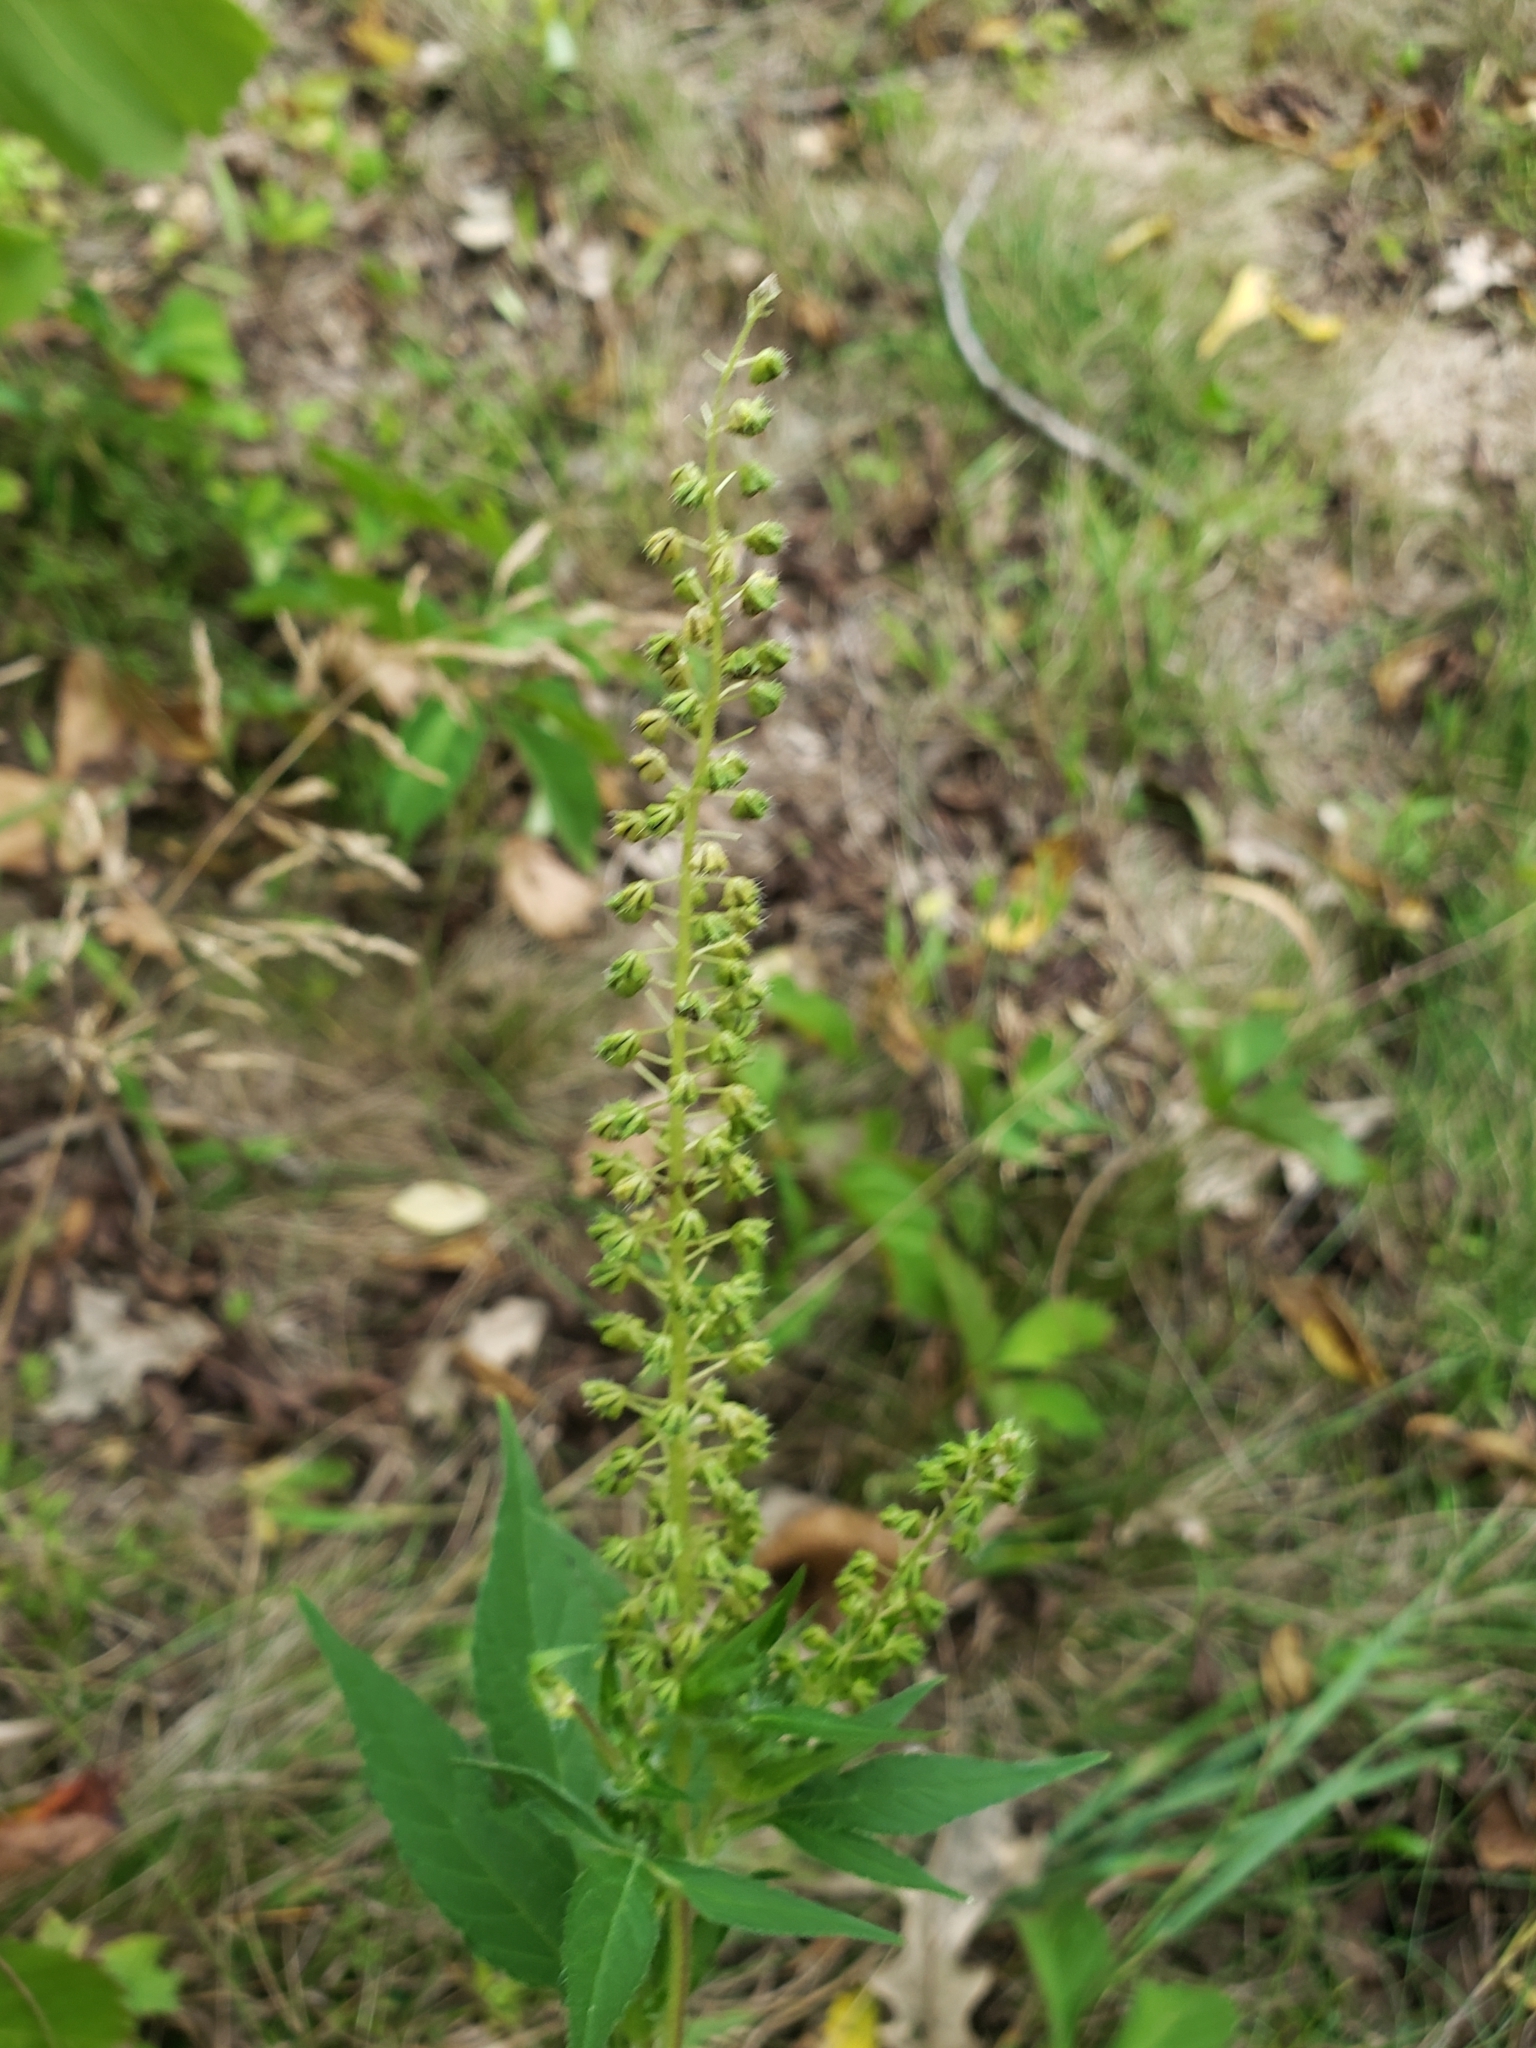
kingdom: Plantae
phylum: Tracheophyta
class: Magnoliopsida
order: Asterales
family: Asteraceae
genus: Ambrosia
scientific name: Ambrosia trifida
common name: Giant ragweed
